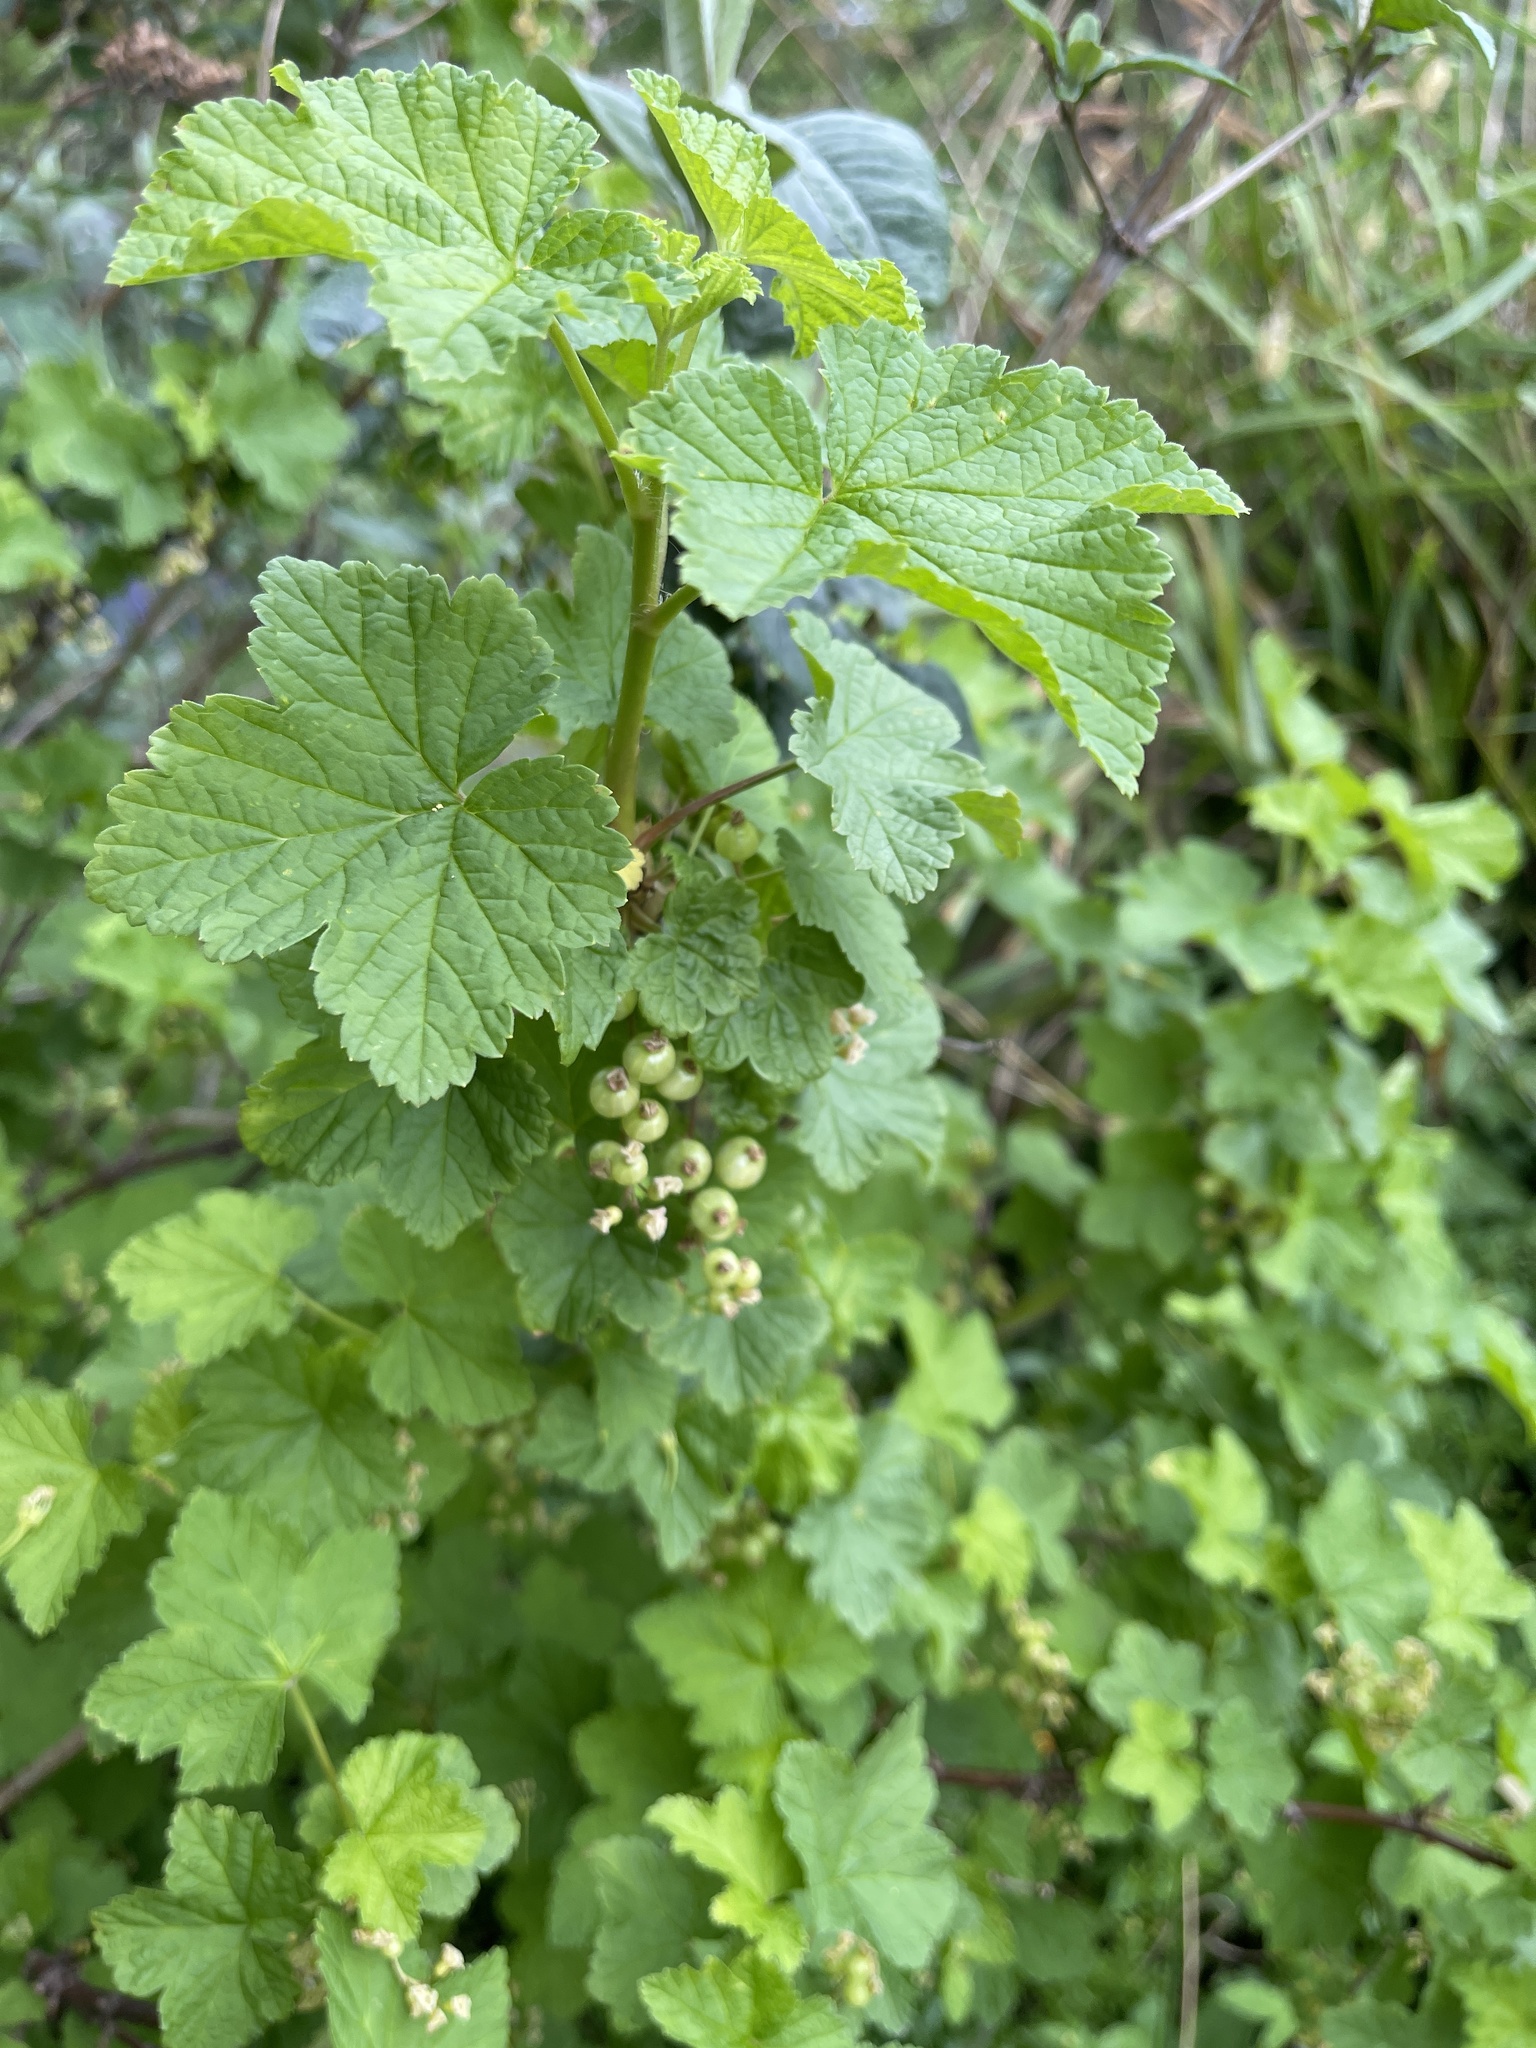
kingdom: Plantae
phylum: Tracheophyta
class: Magnoliopsida
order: Saxifragales
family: Grossulariaceae
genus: Ribes
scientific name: Ribes rubrum
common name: Red currant
